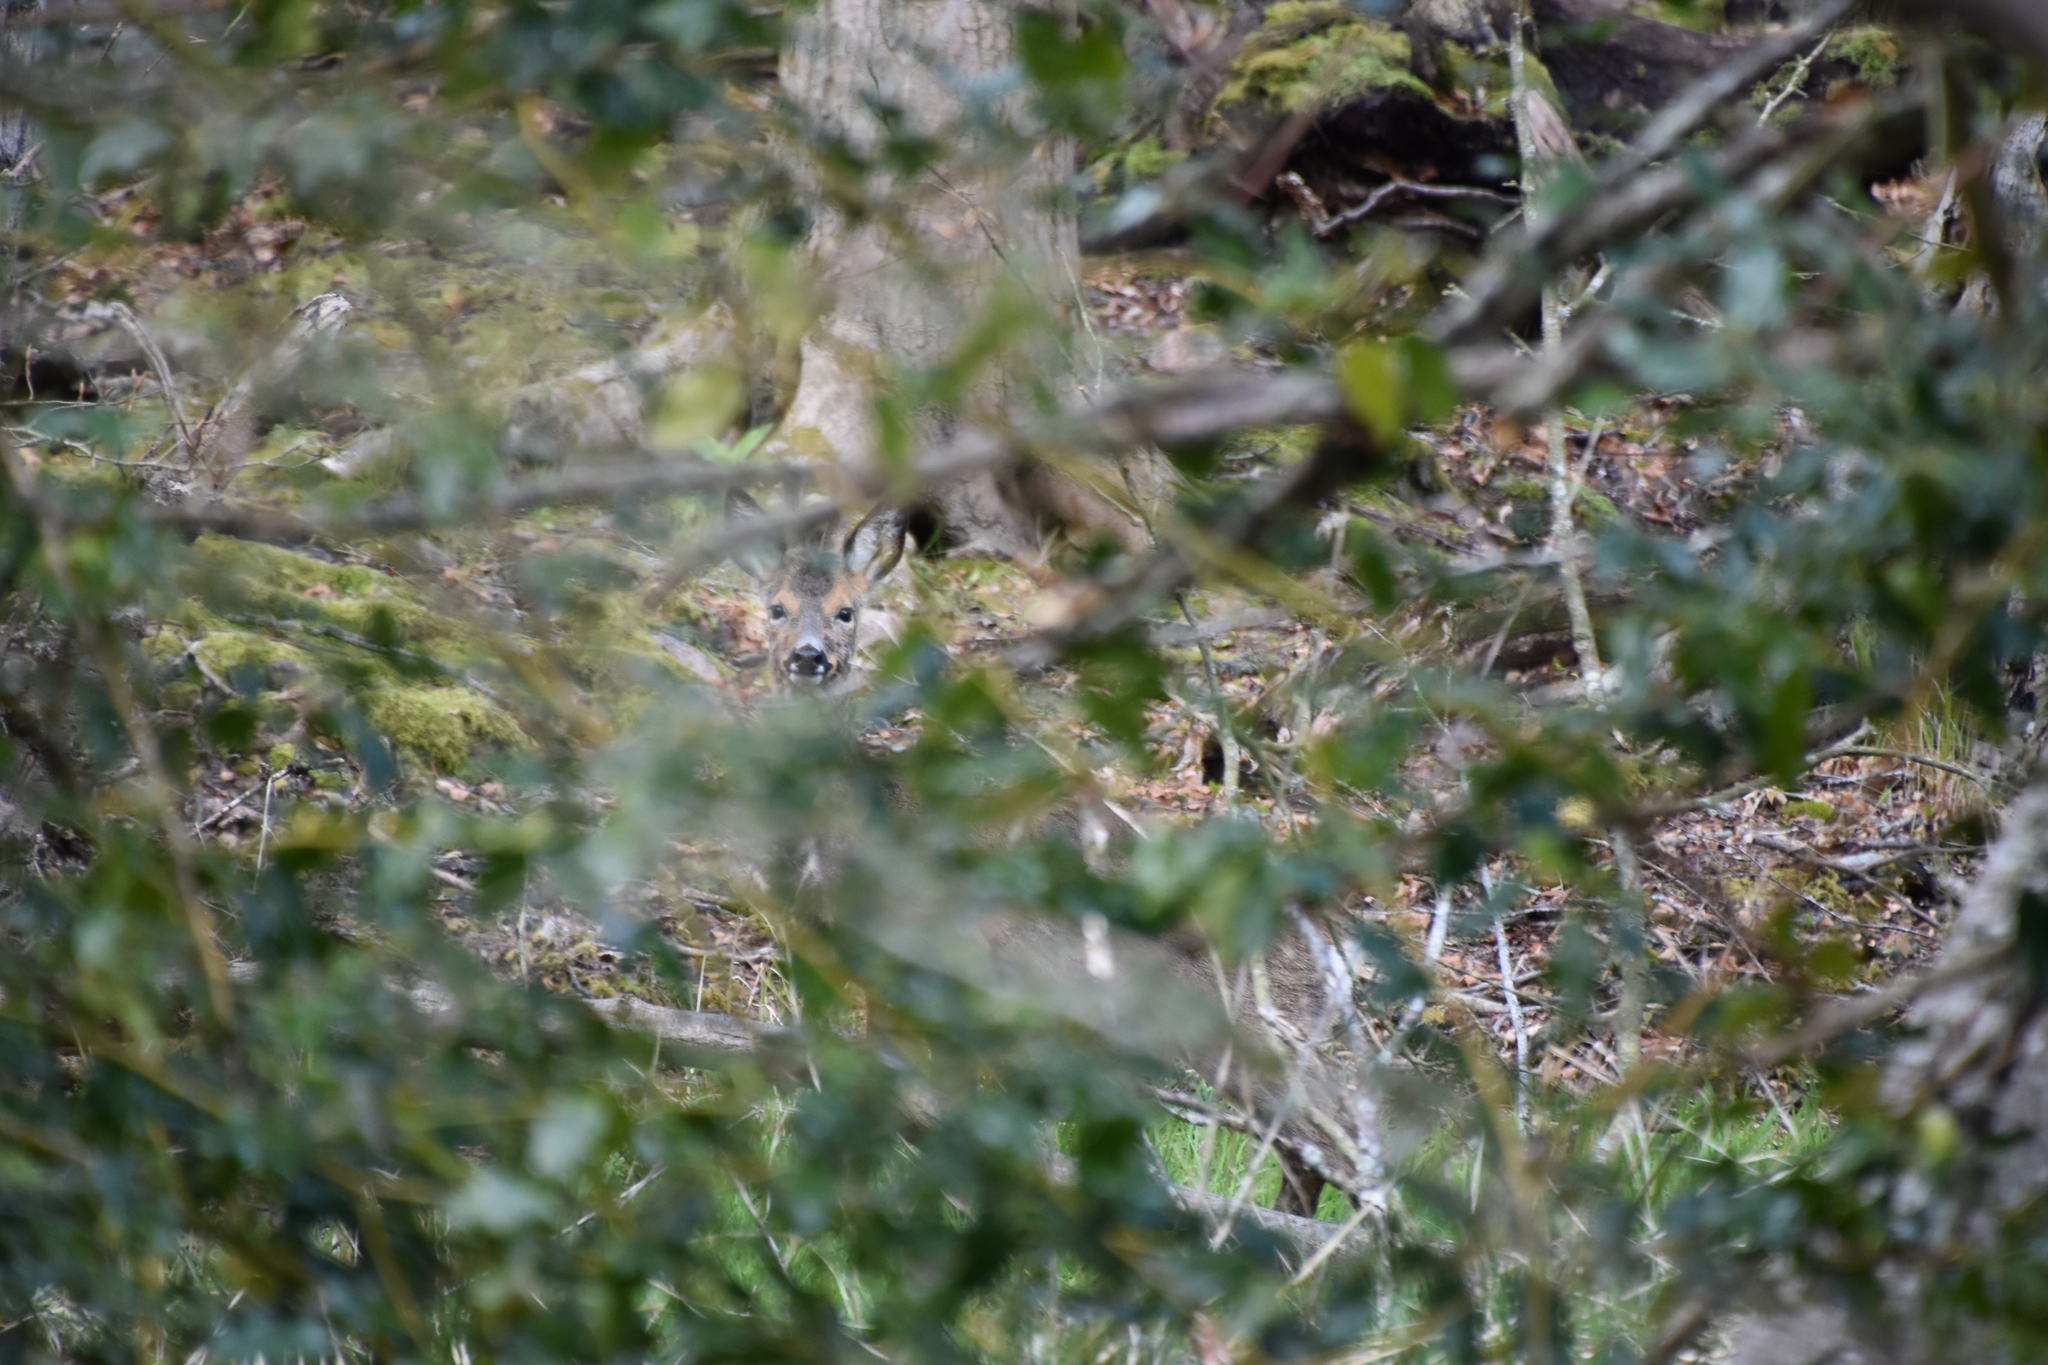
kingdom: Animalia
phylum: Chordata
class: Mammalia
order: Artiodactyla
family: Cervidae
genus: Capreolus
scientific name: Capreolus capreolus
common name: Western roe deer
